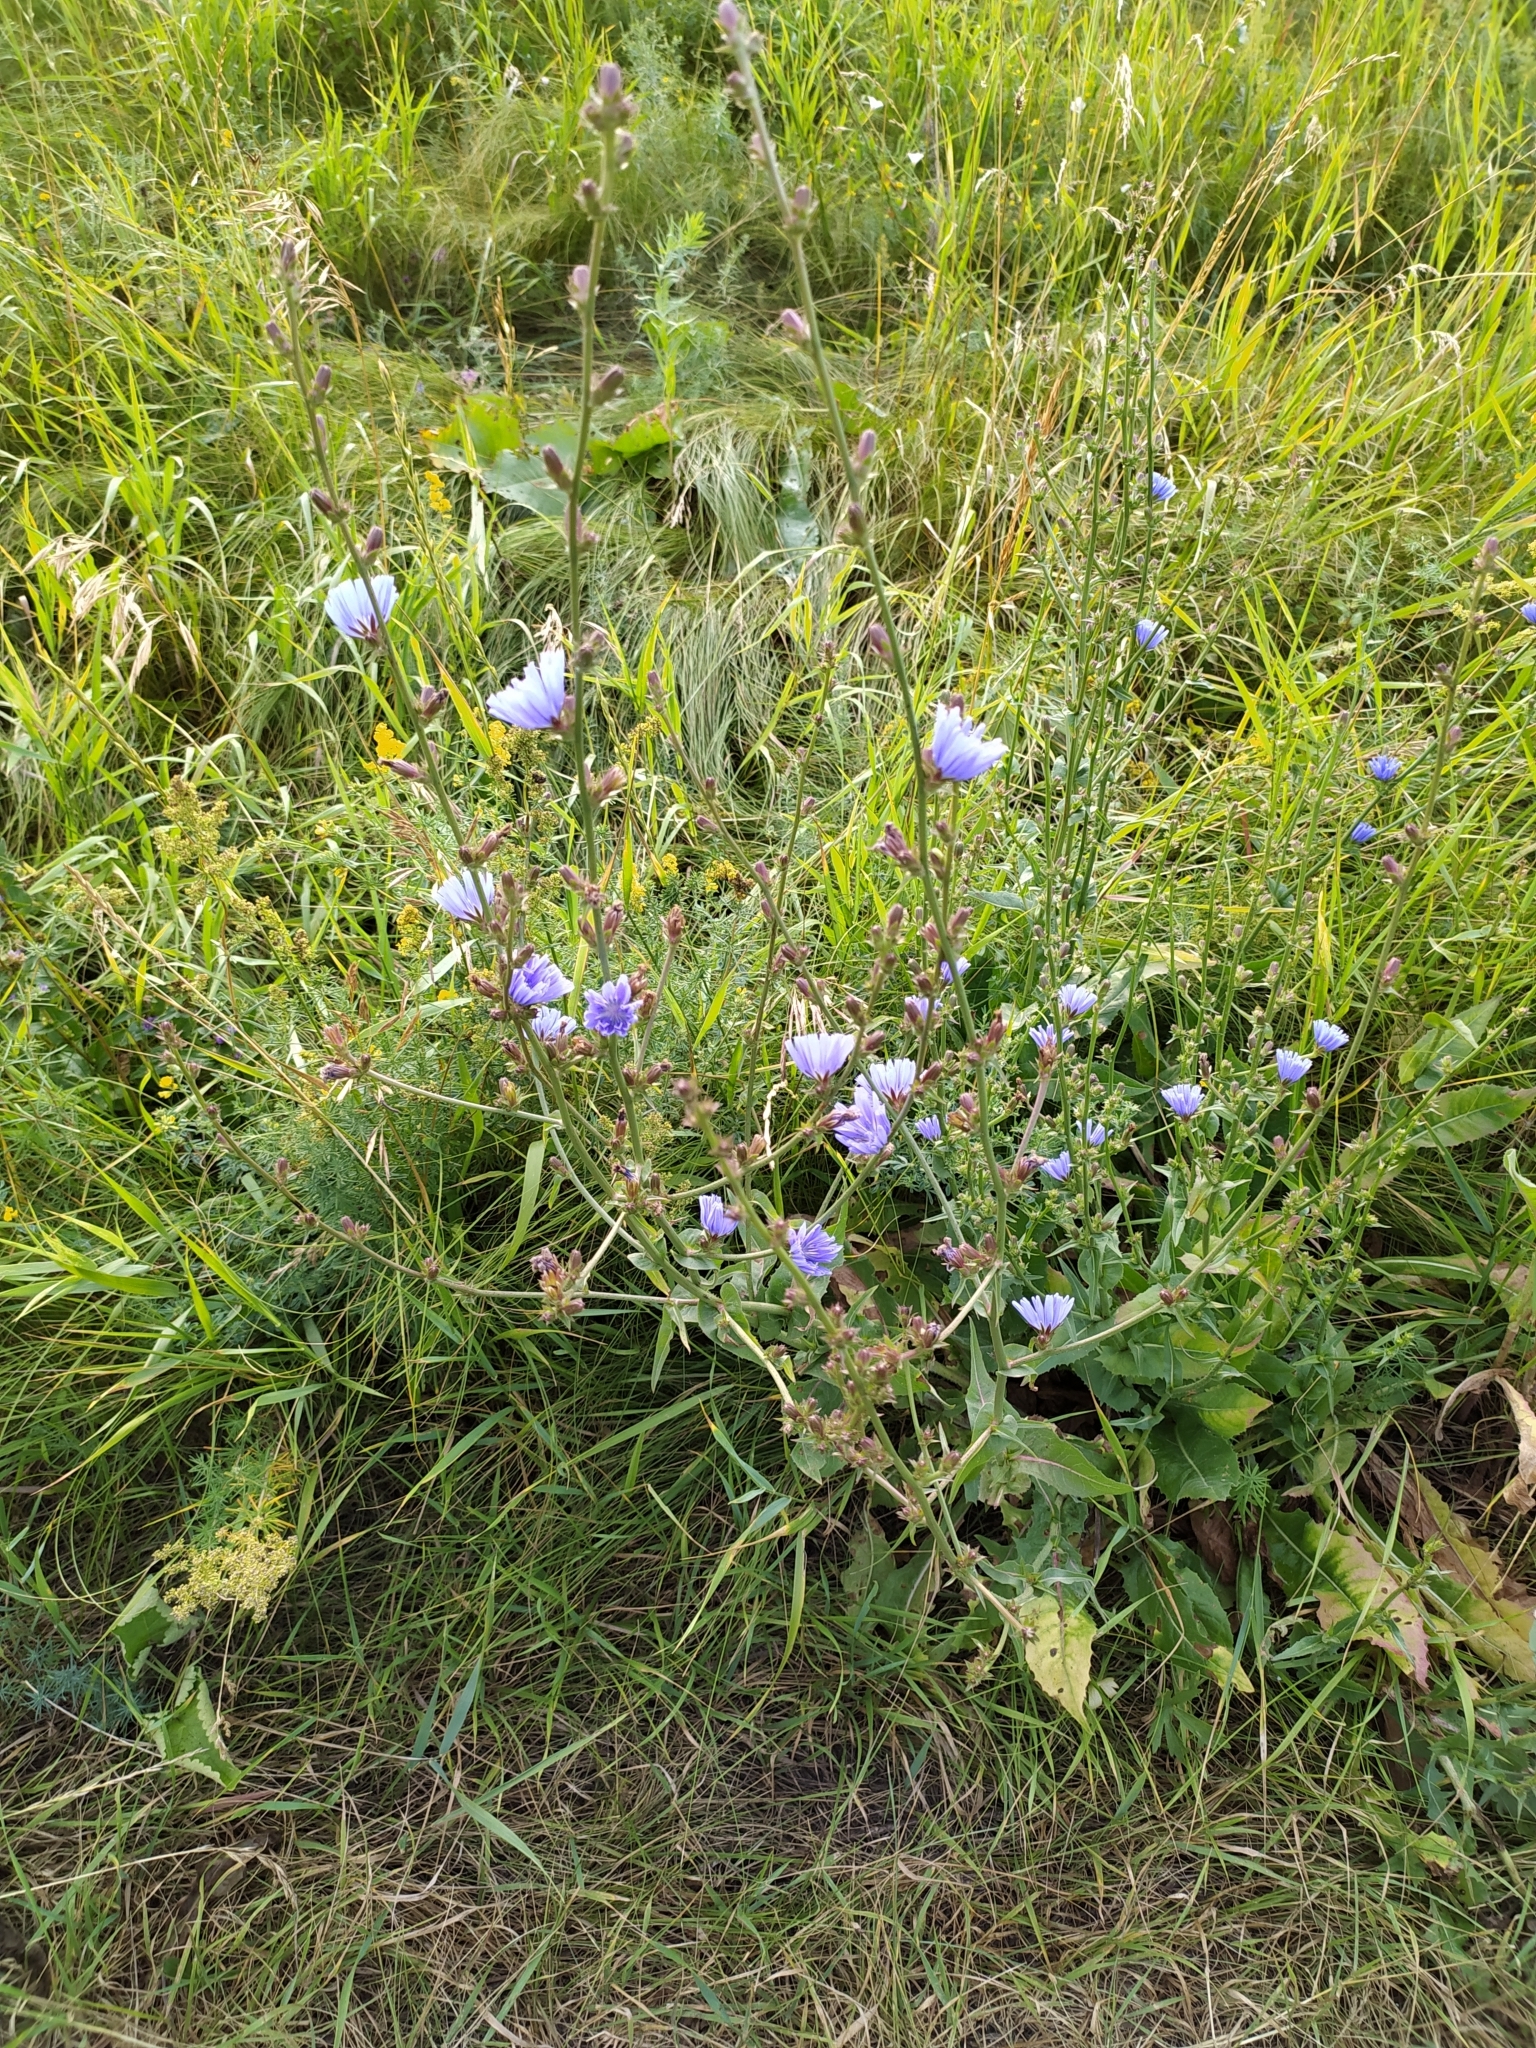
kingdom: Plantae
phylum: Tracheophyta
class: Magnoliopsida
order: Asterales
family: Asteraceae
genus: Cichorium
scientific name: Cichorium intybus
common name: Chicory
